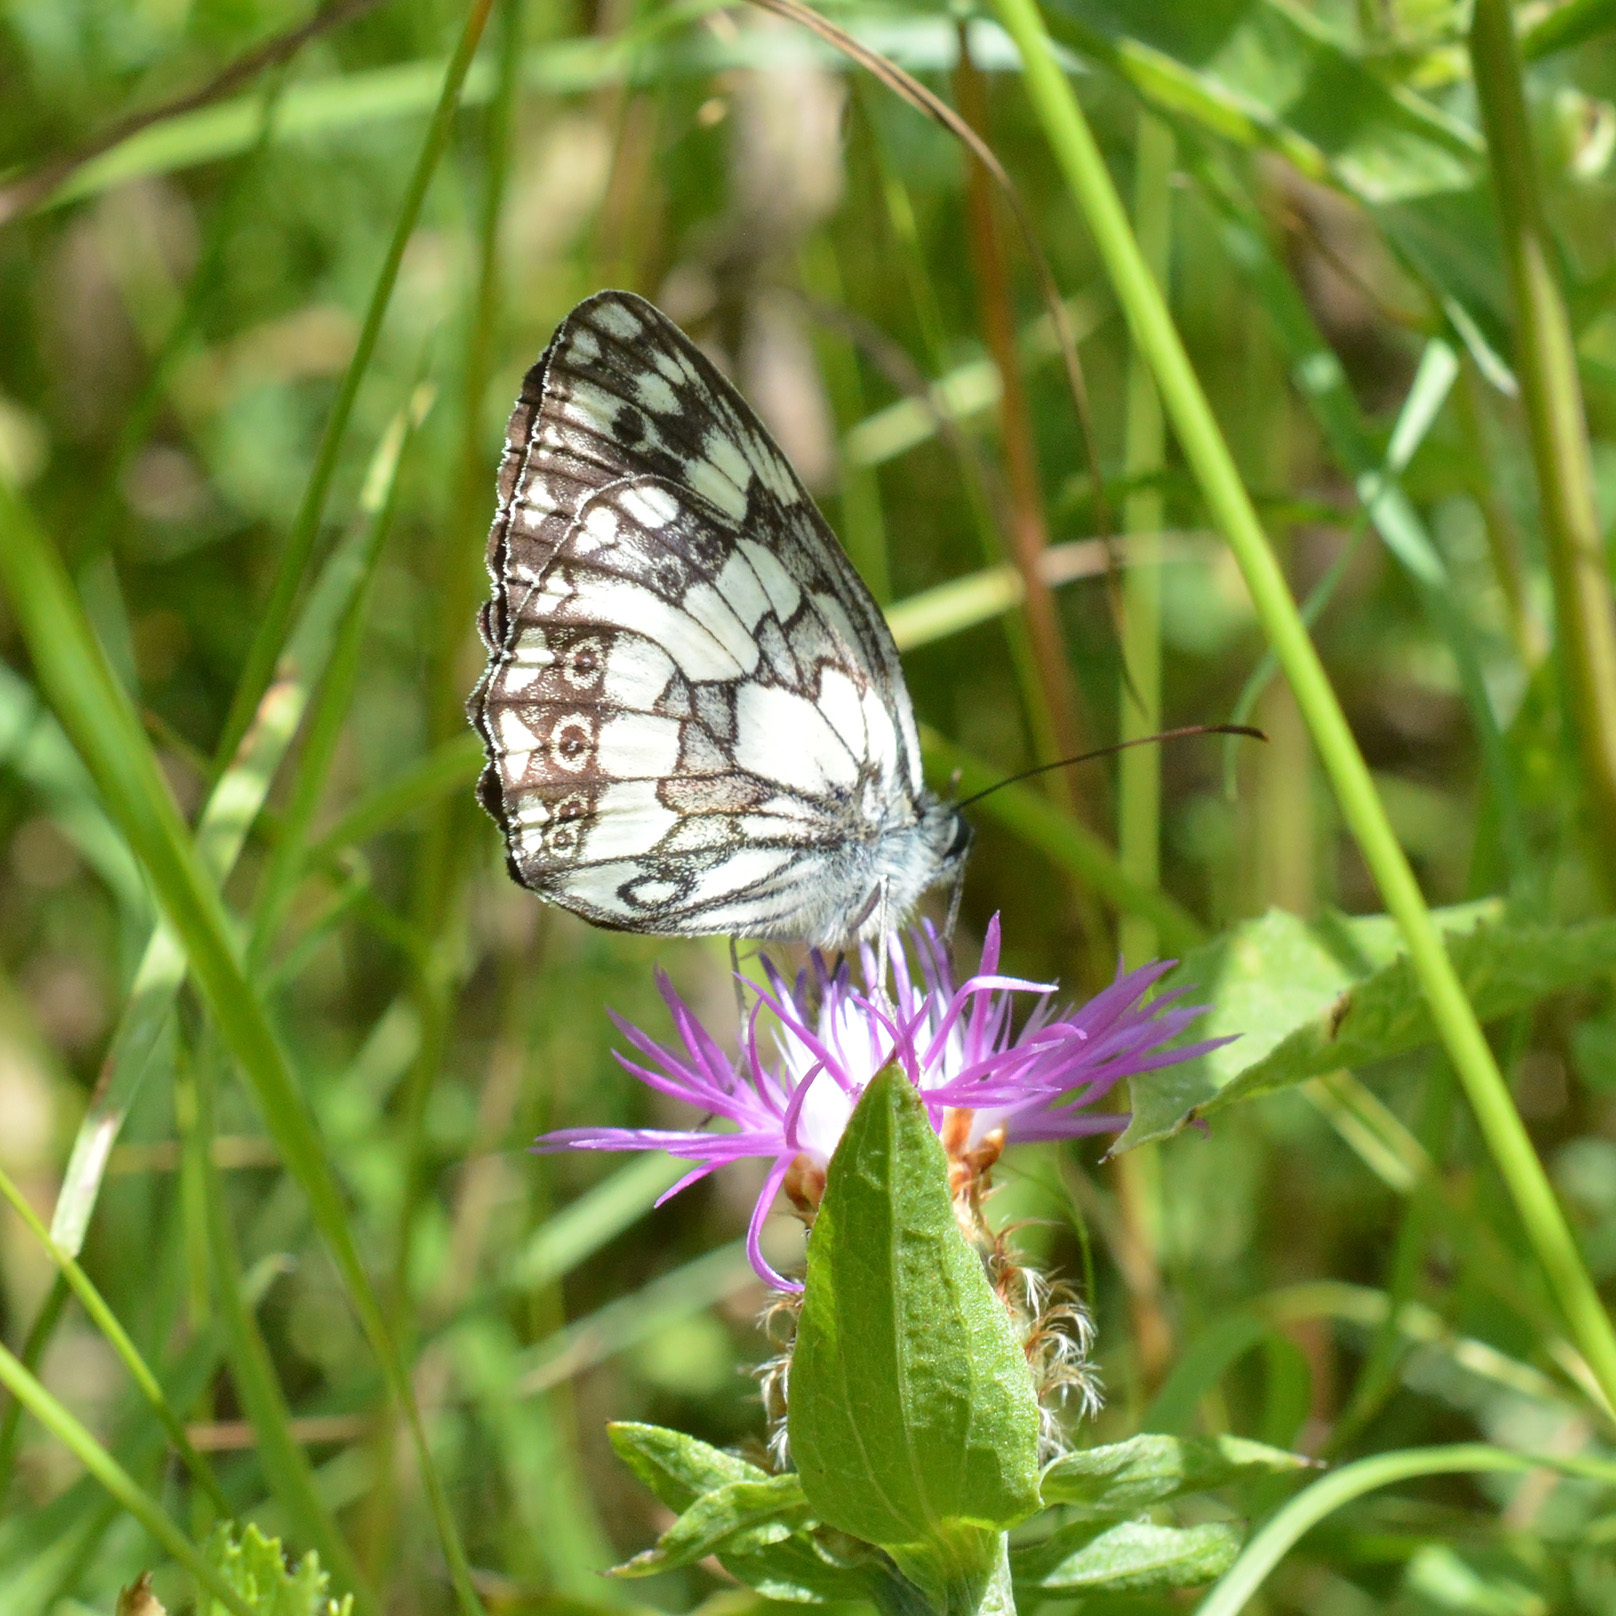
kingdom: Animalia
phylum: Arthropoda
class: Insecta
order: Lepidoptera
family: Nymphalidae
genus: Melanargia
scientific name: Melanargia galathea
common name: Marbled white
